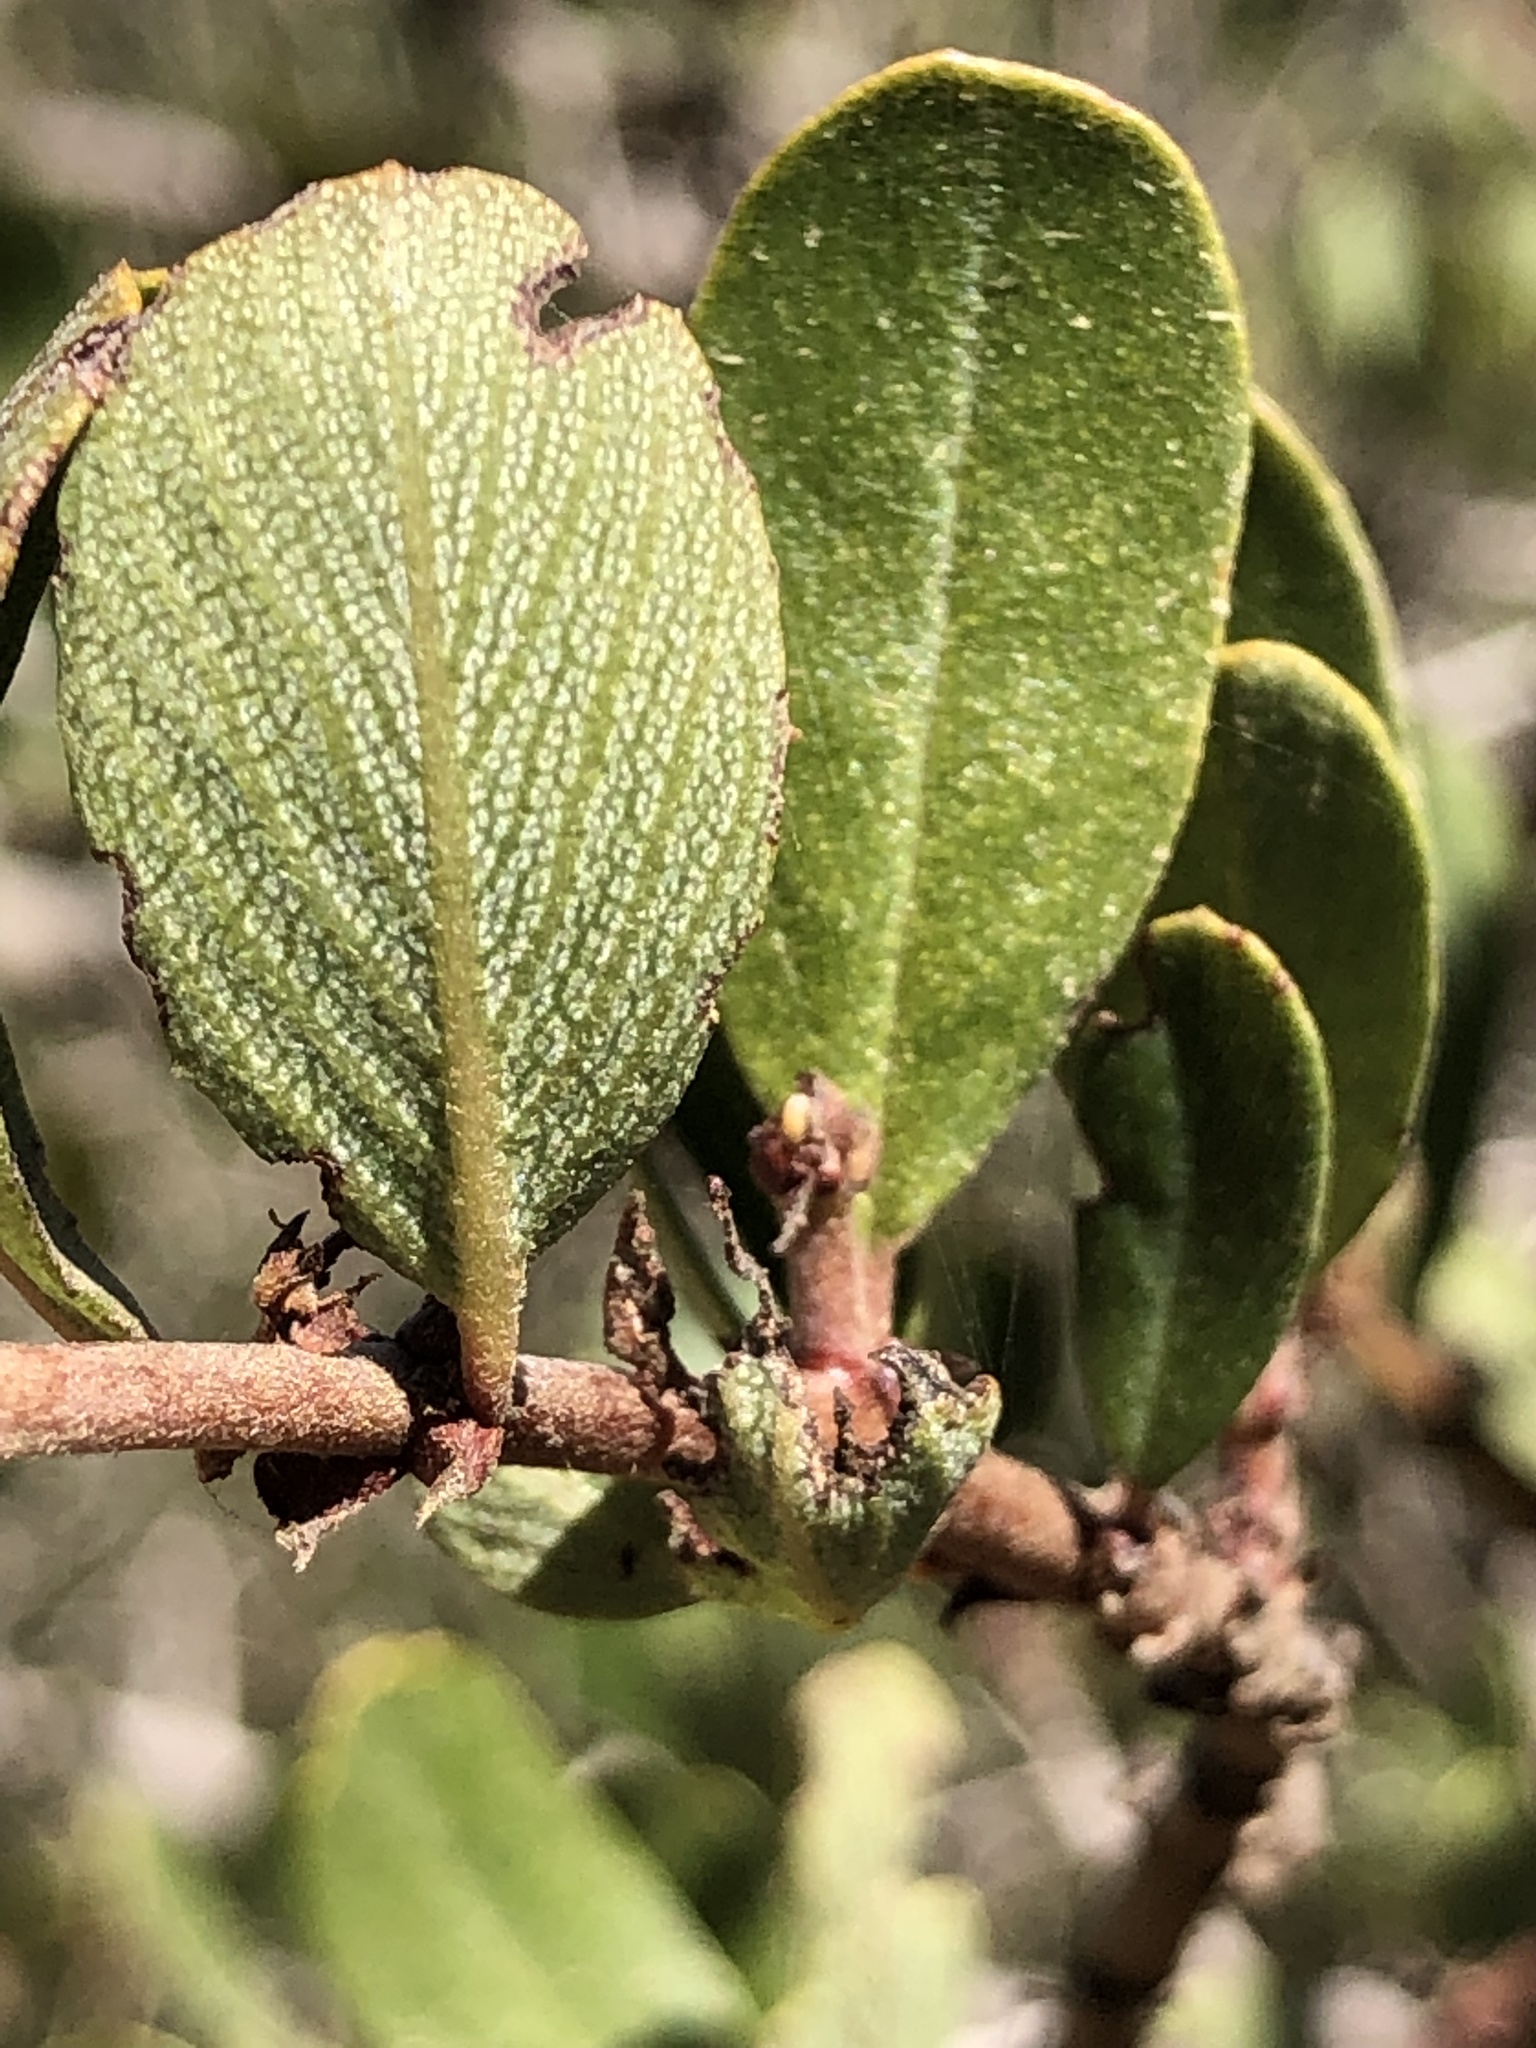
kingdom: Plantae
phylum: Tracheophyta
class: Magnoliopsida
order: Rosales
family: Rhamnaceae
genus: Ceanothus
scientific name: Ceanothus cuneatus
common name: Cuneate ceanothus
